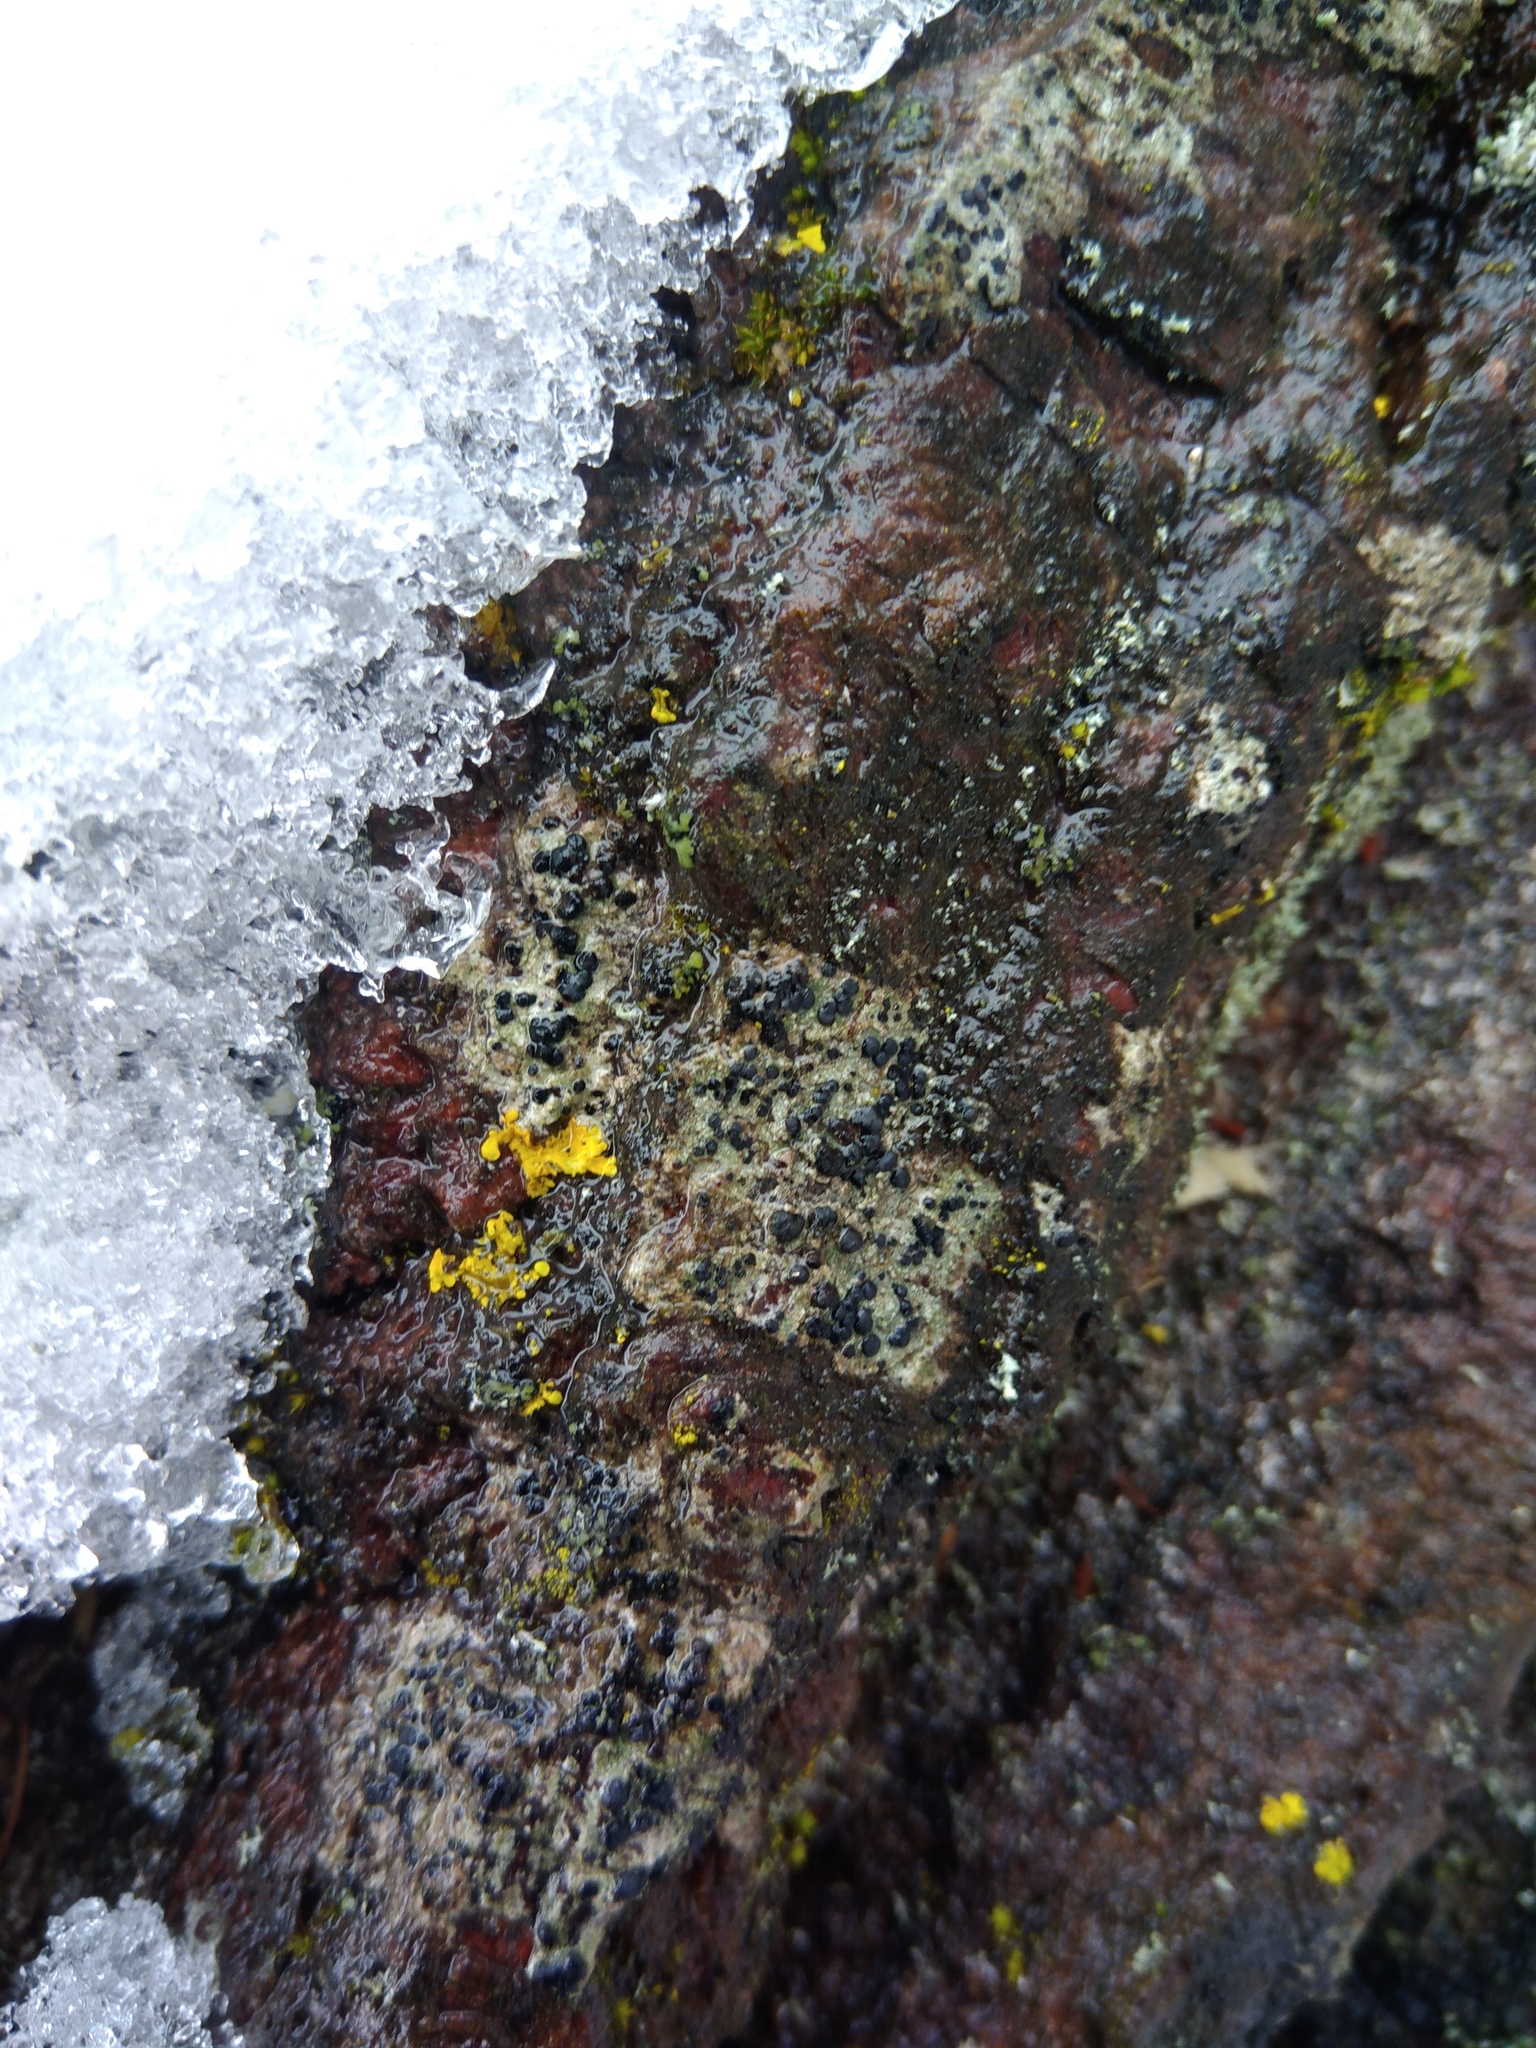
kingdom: Fungi
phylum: Ascomycota
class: Lecanoromycetes
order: Lecanorales
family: Lecanoraceae
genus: Lecidella
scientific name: Lecidella elaeochroma
